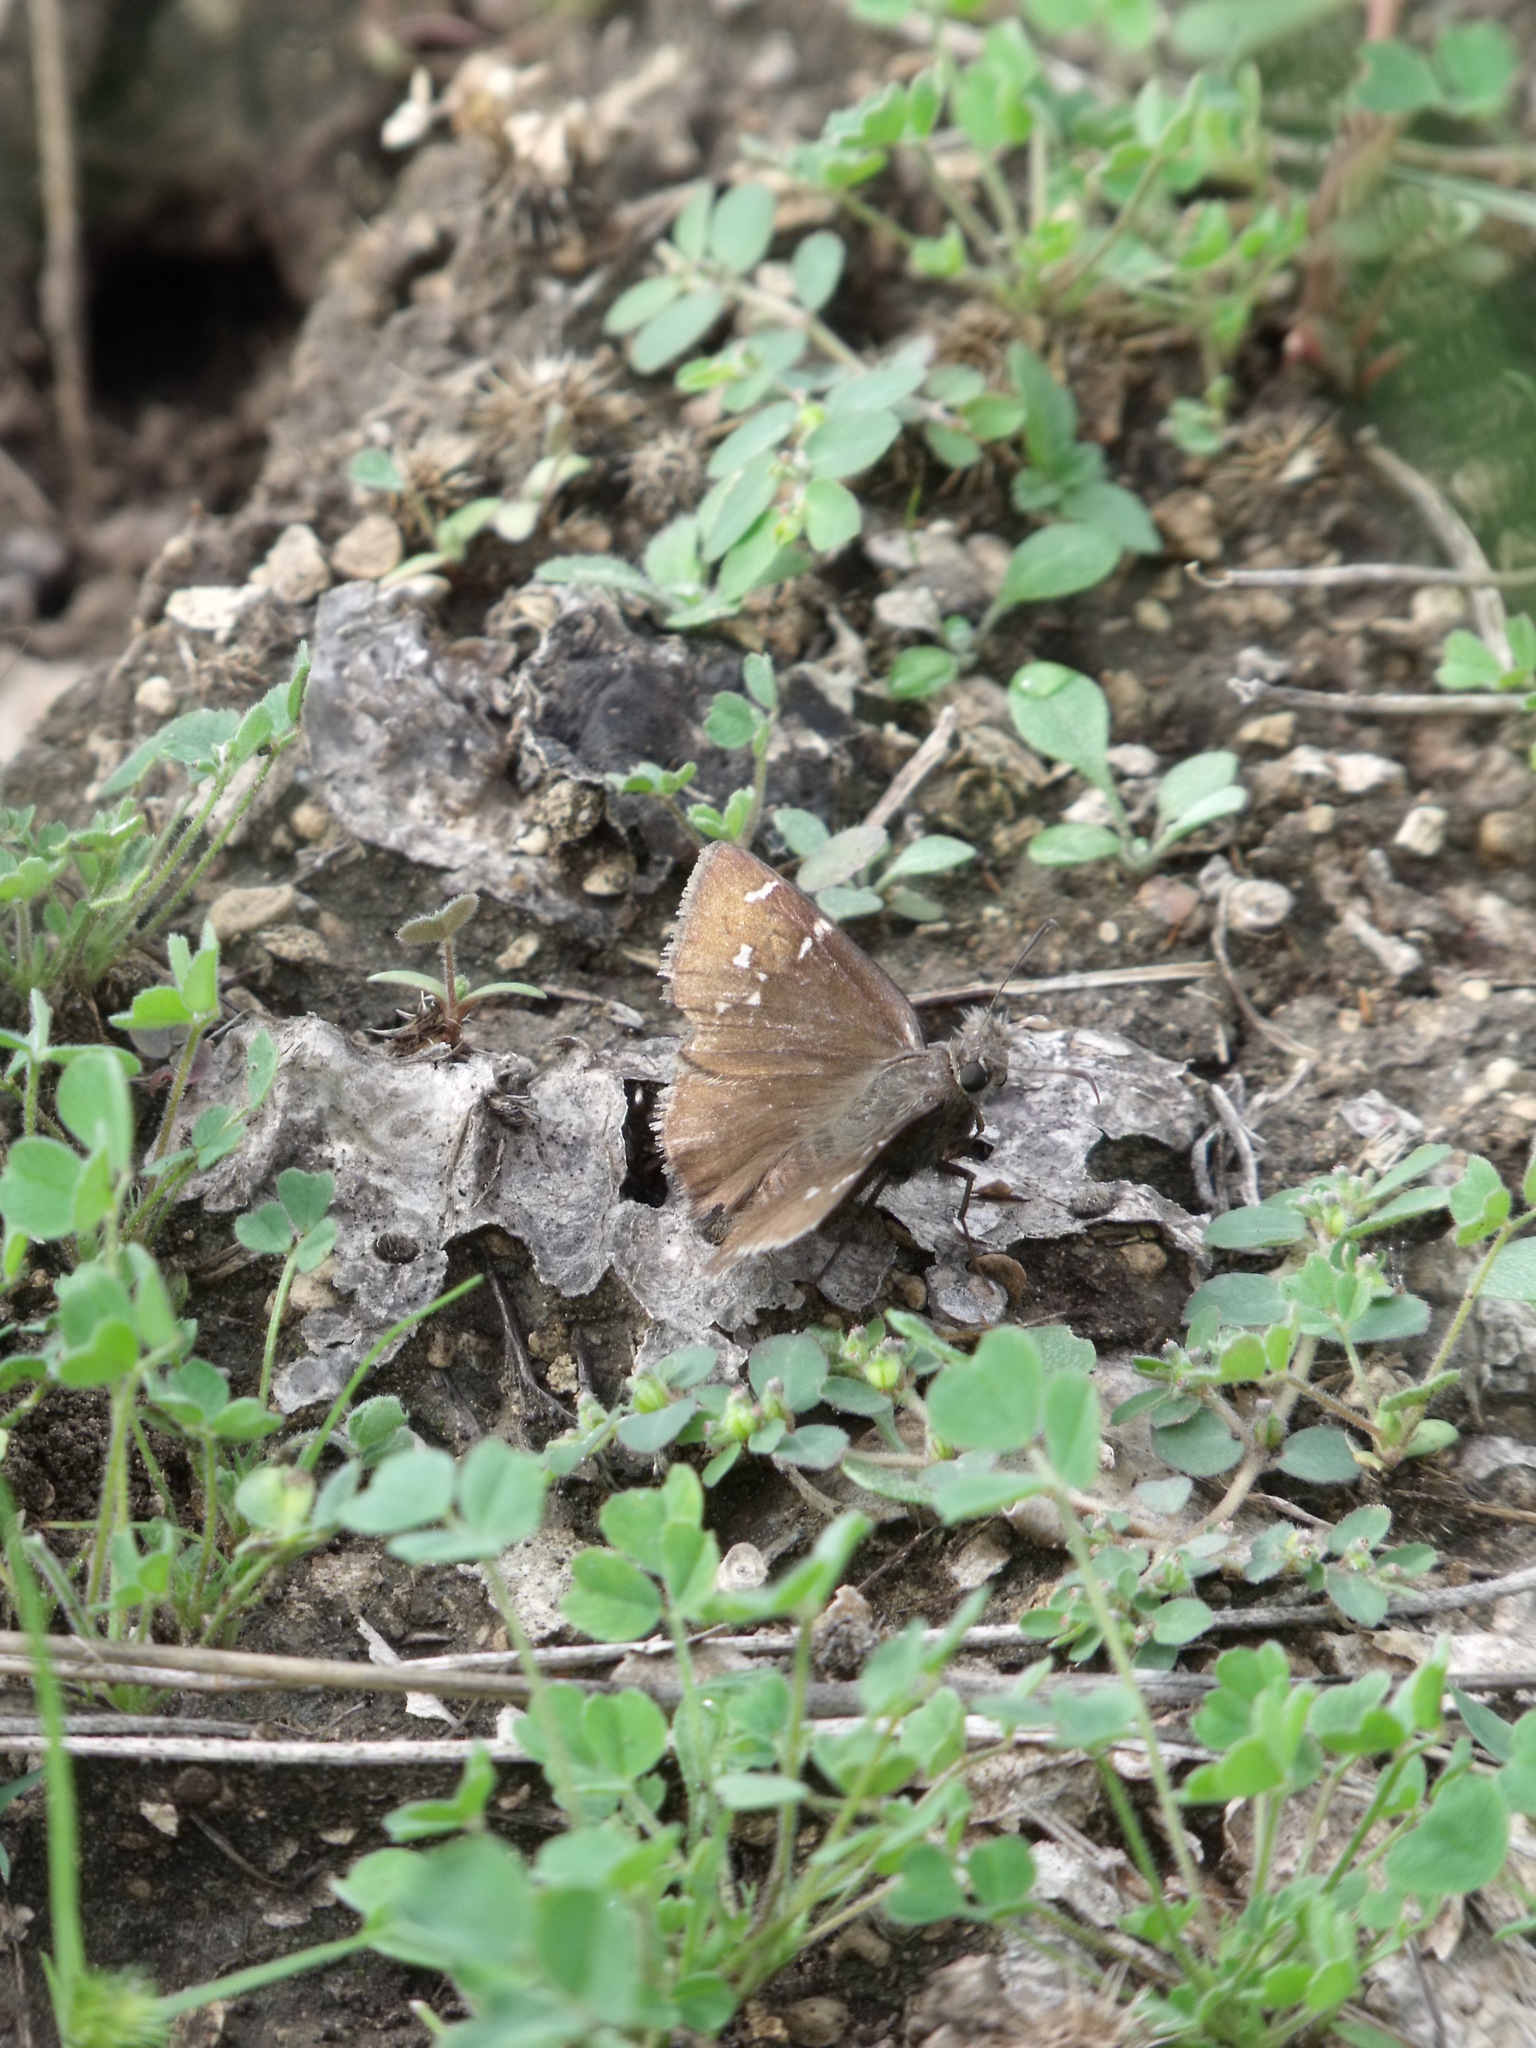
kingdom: Animalia
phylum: Arthropoda
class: Insecta
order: Lepidoptera
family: Hesperiidae
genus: Thorybes
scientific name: Thorybes mexicana
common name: Mexican cloudywing
